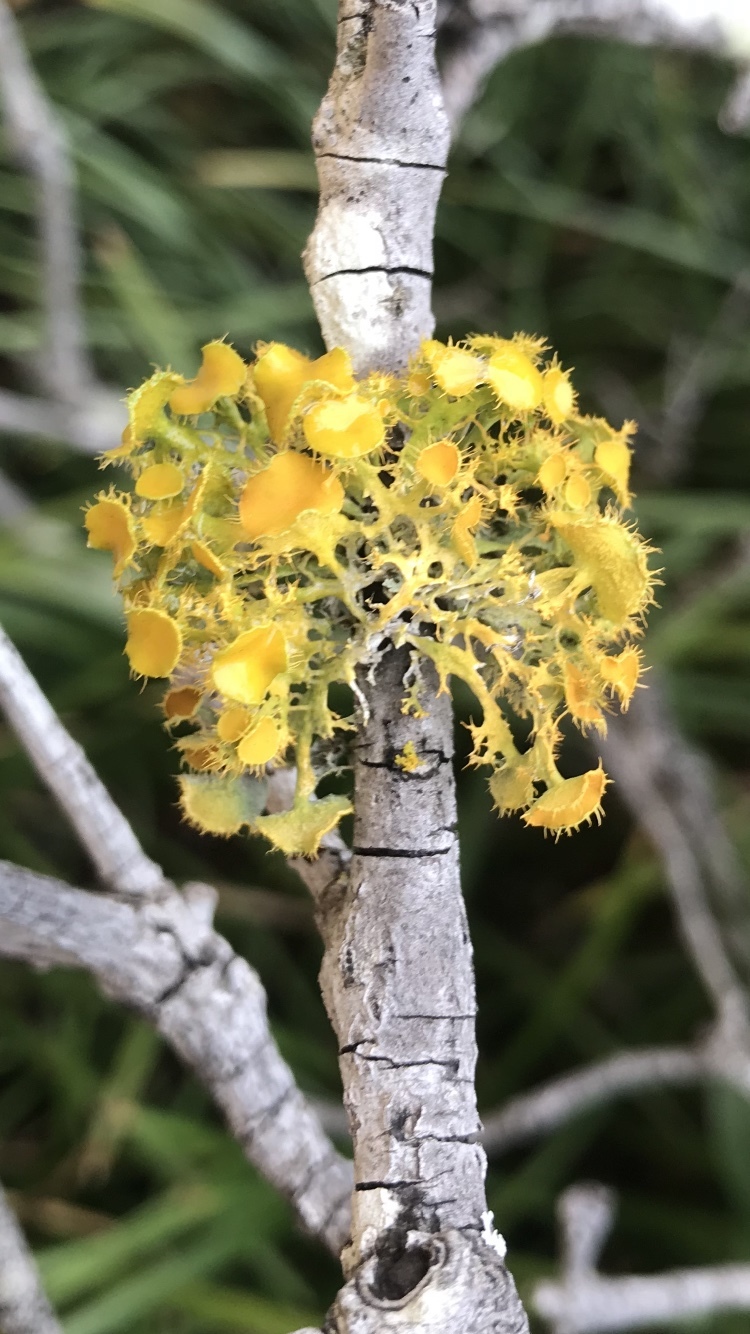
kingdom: Fungi
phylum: Ascomycota
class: Lecanoromycetes
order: Teloschistales
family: Teloschistaceae
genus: Niorma
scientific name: Niorma chrysophthalma
